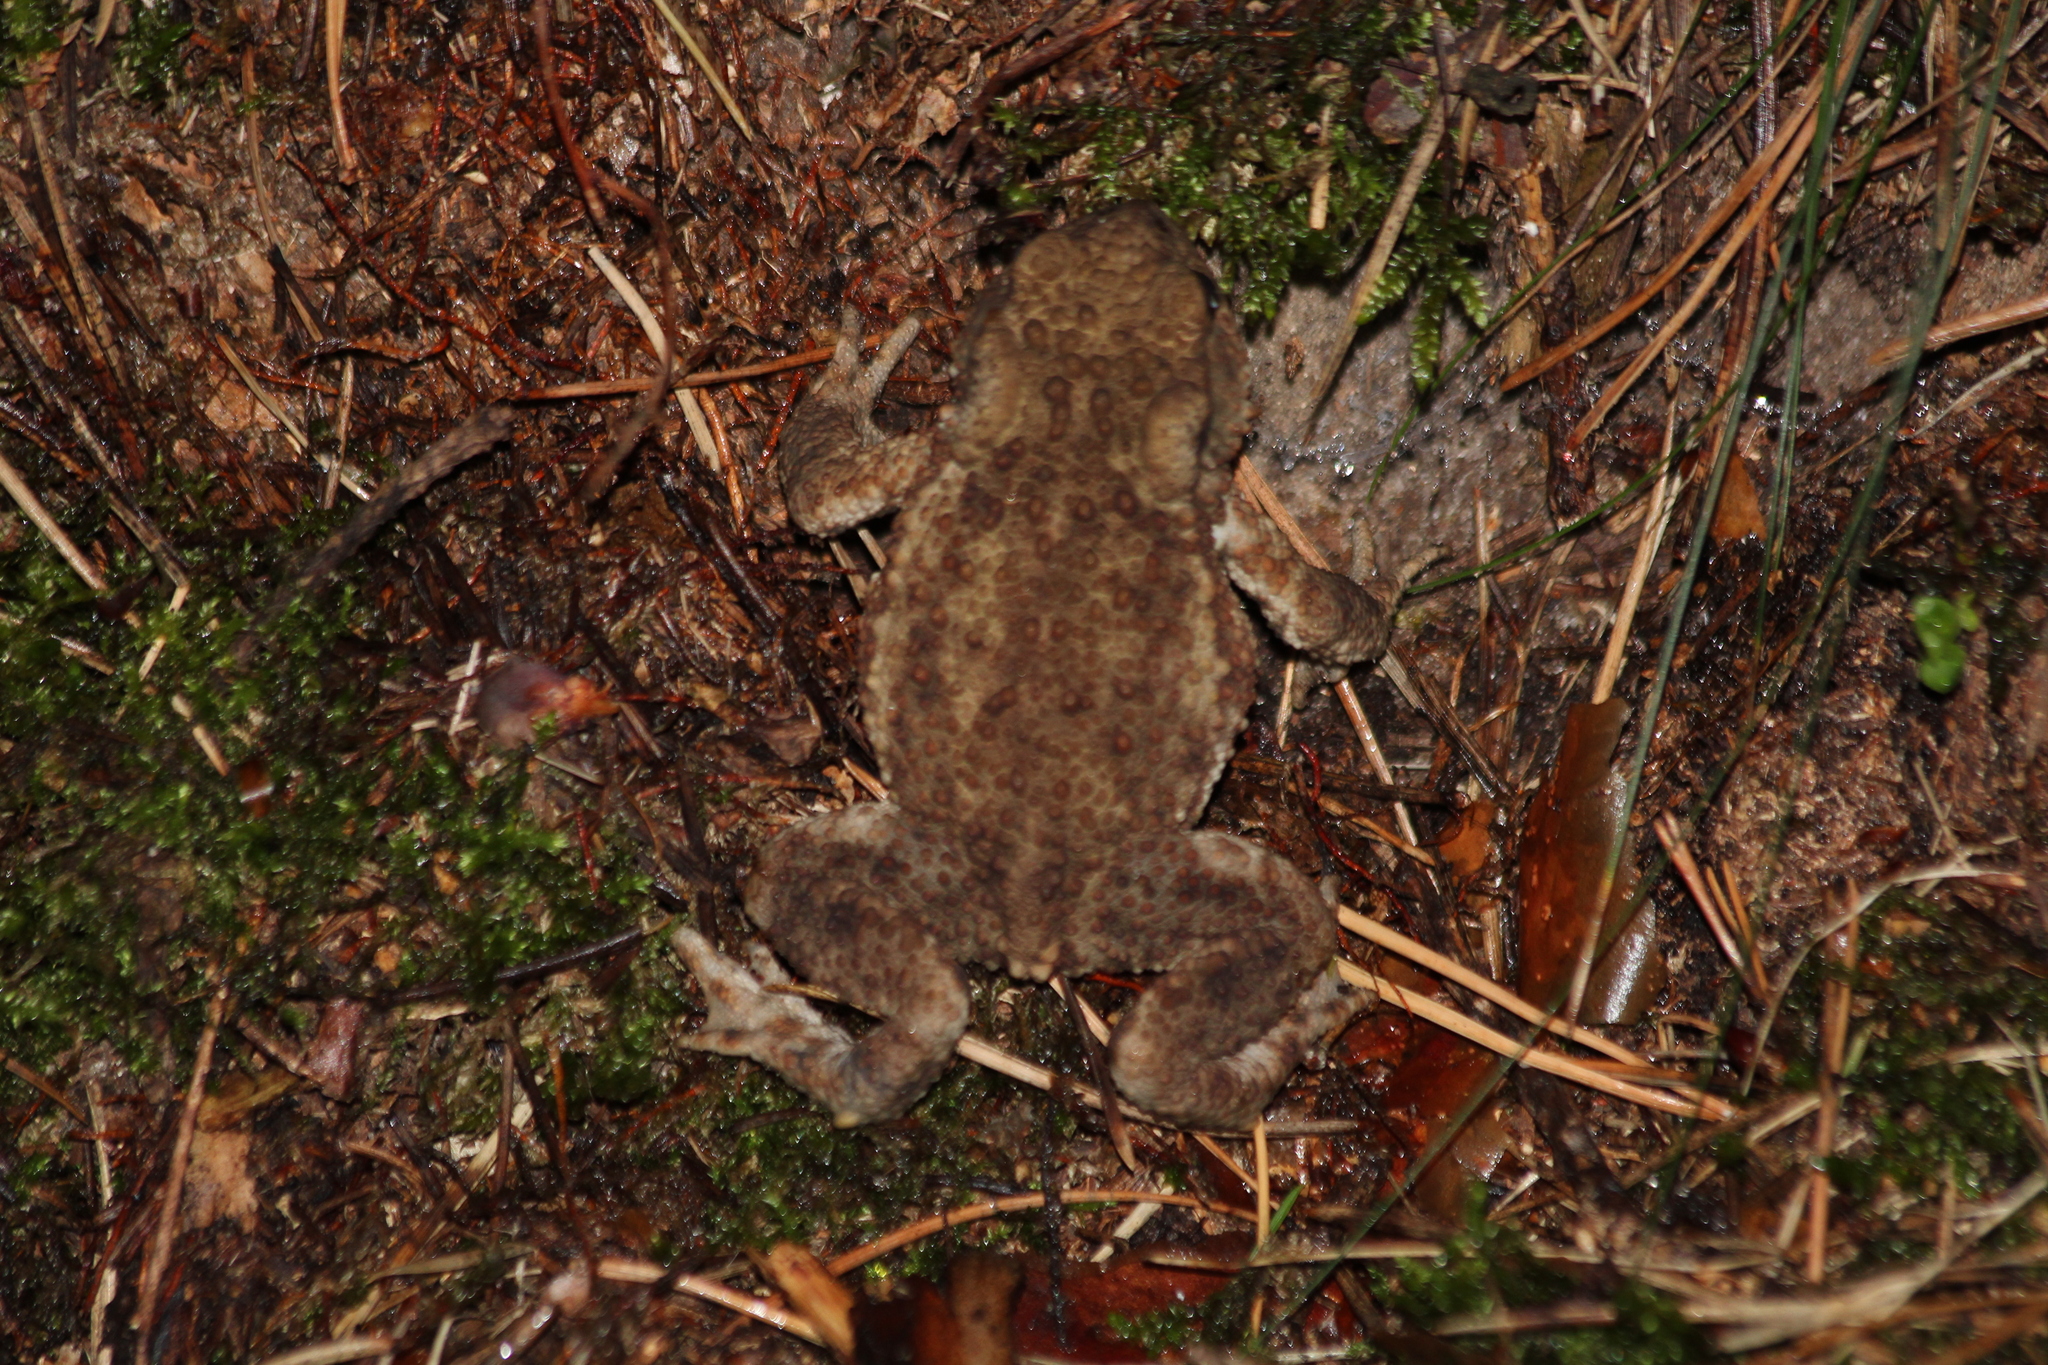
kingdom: Animalia
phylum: Chordata
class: Amphibia
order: Anura
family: Bufonidae
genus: Bufo
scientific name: Bufo bufo
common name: Common toad
